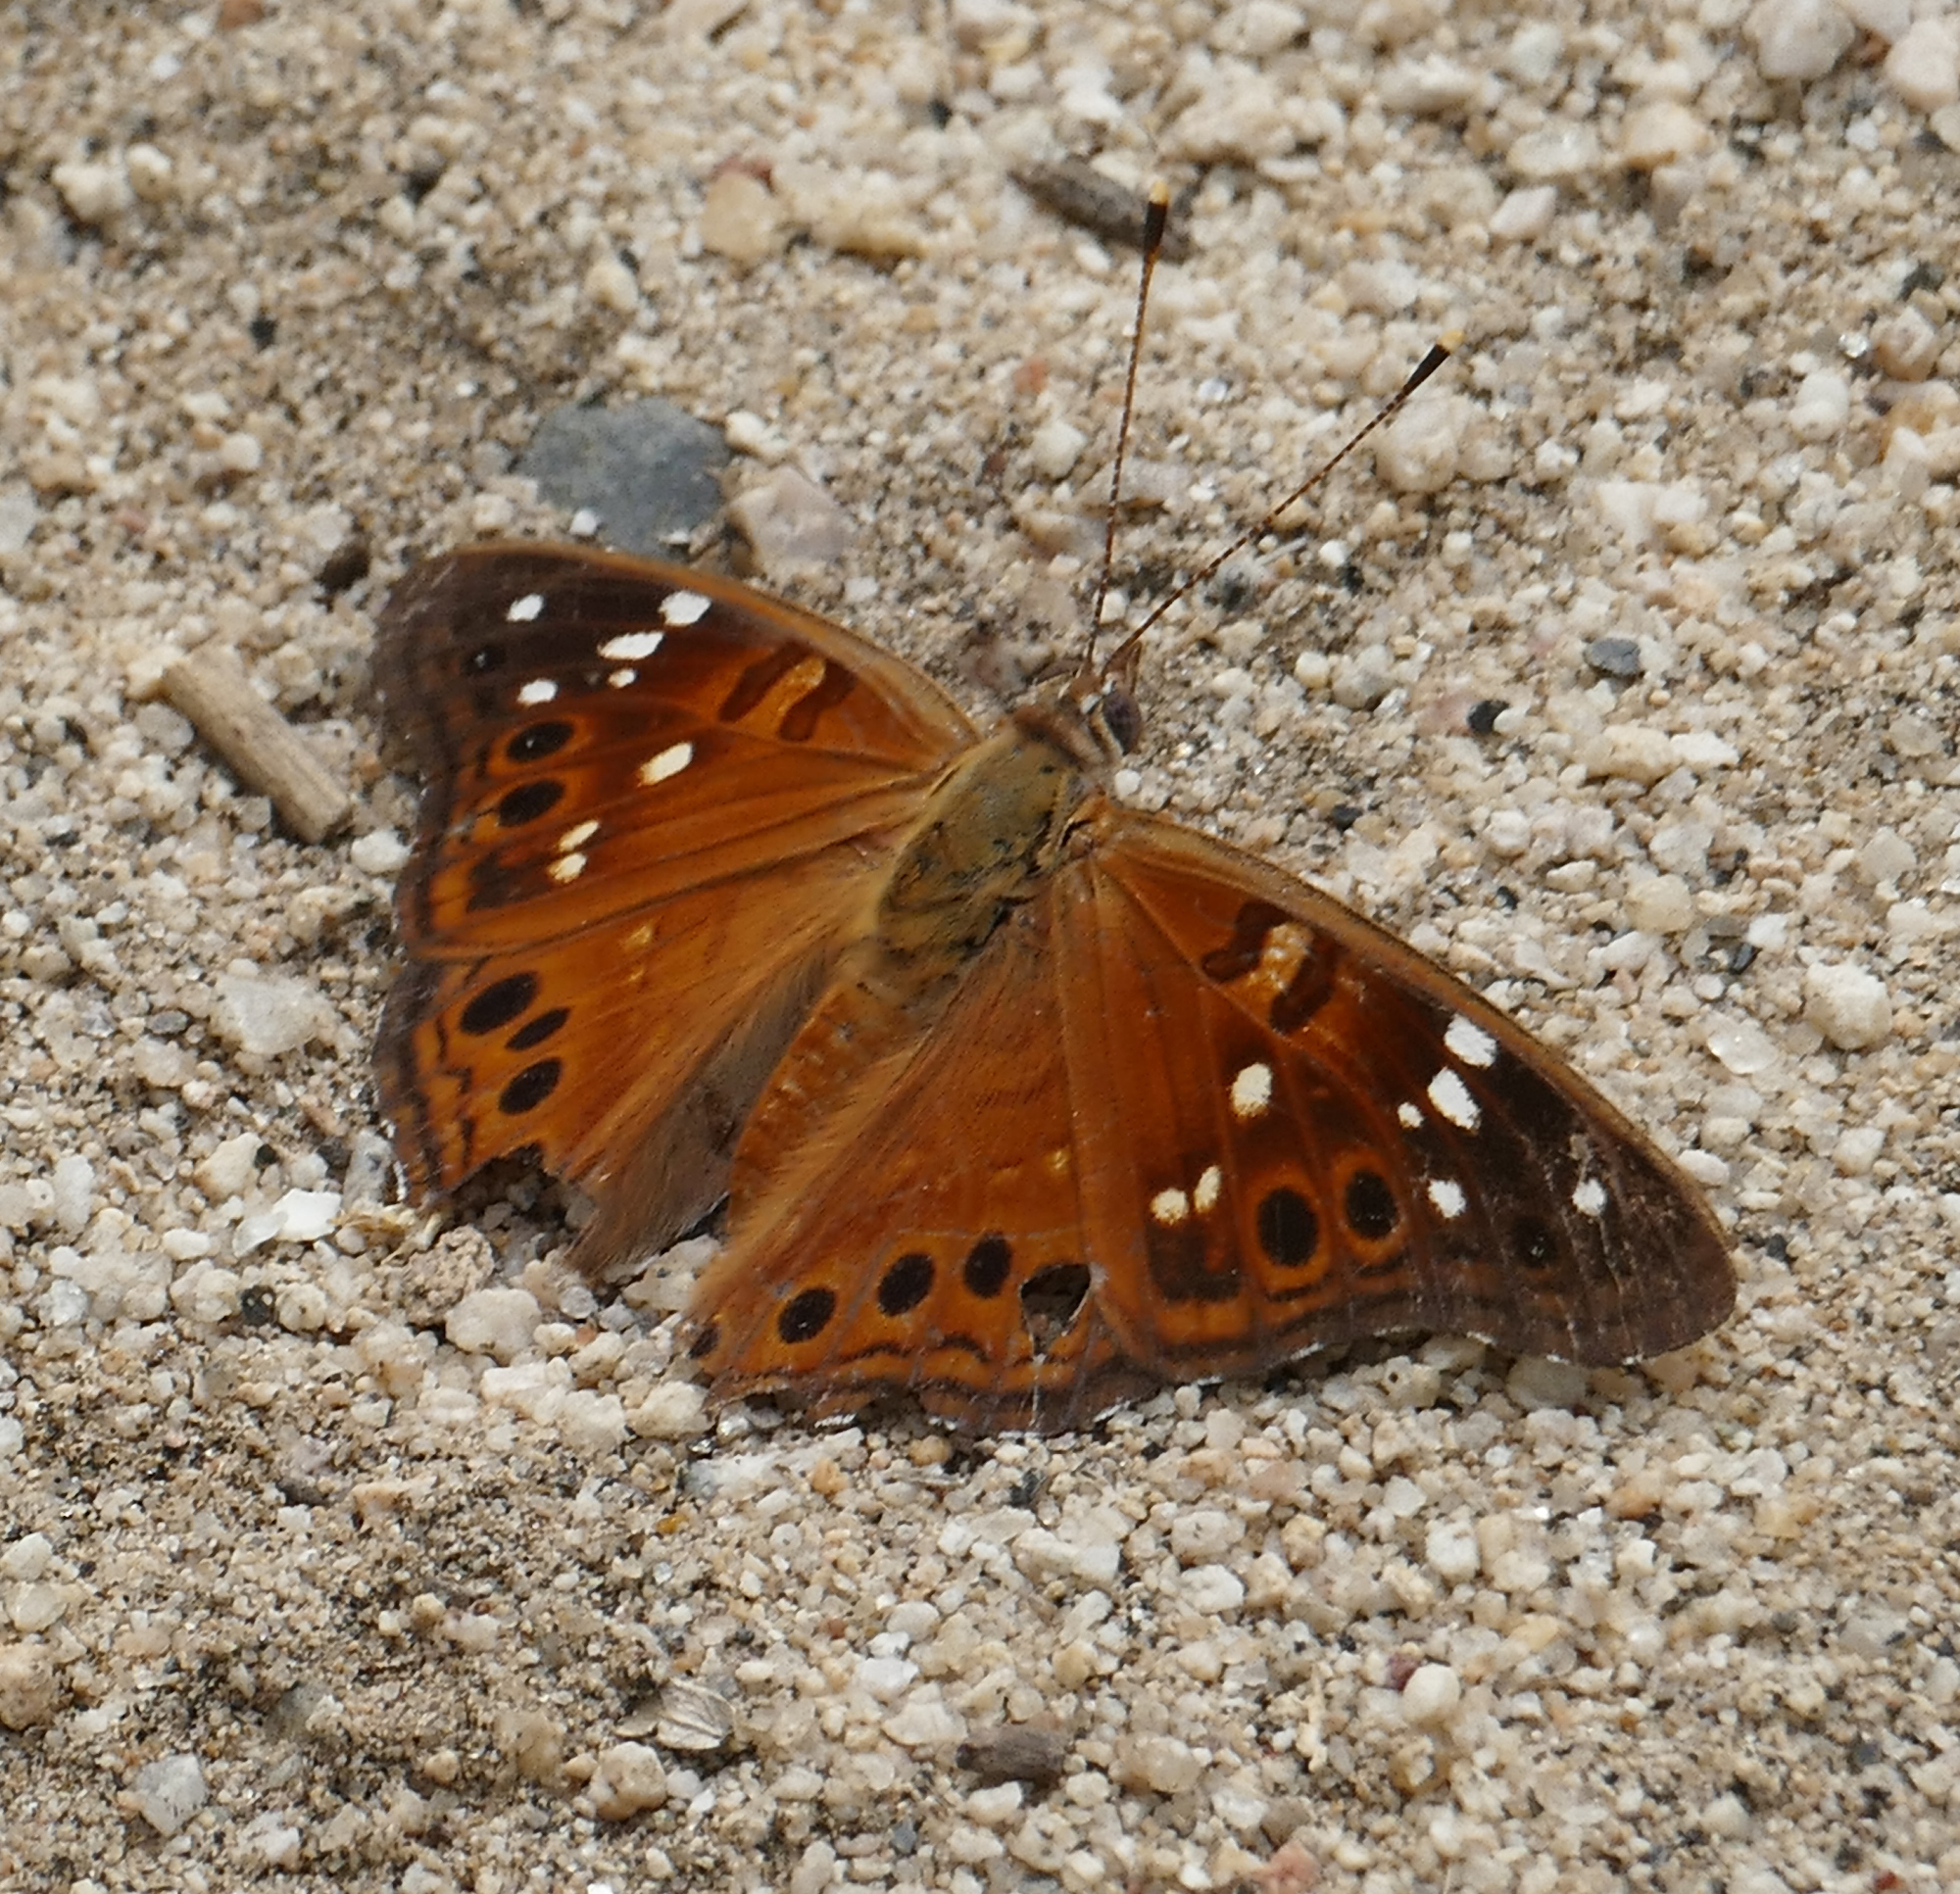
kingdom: Animalia
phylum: Arthropoda
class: Insecta
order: Lepidoptera
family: Nymphalidae
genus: Asterocampa
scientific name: Asterocampa leilia
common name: Empress leilia
